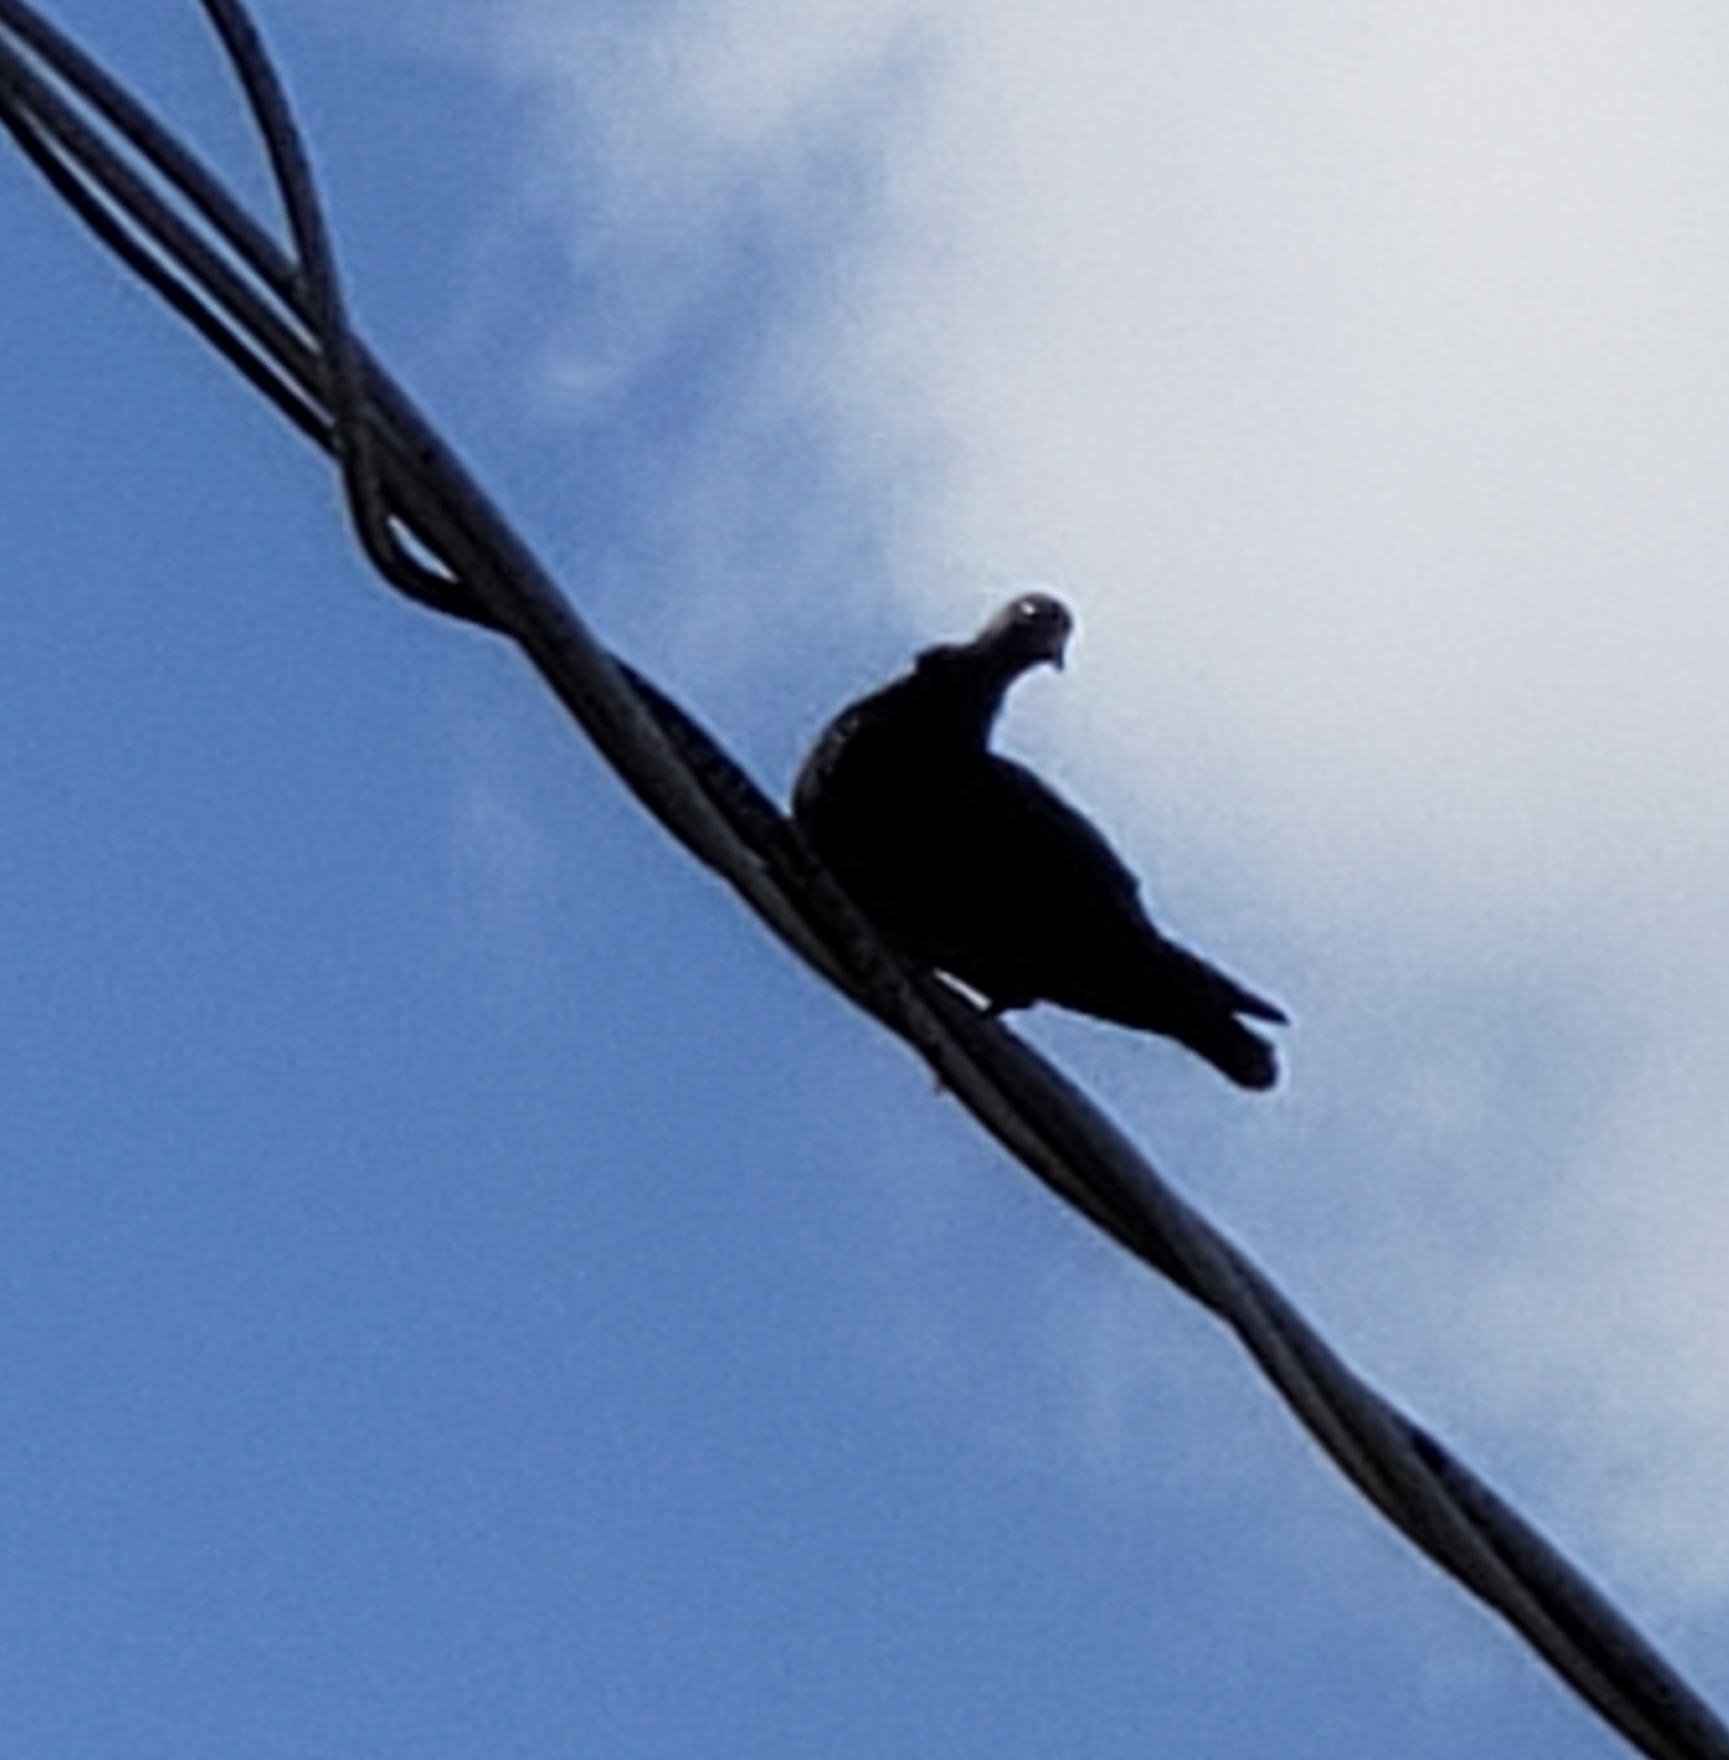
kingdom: Animalia
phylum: Chordata
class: Aves
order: Columbiformes
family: Columbidae
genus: Columba
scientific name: Columba livia
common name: Rock pigeon
